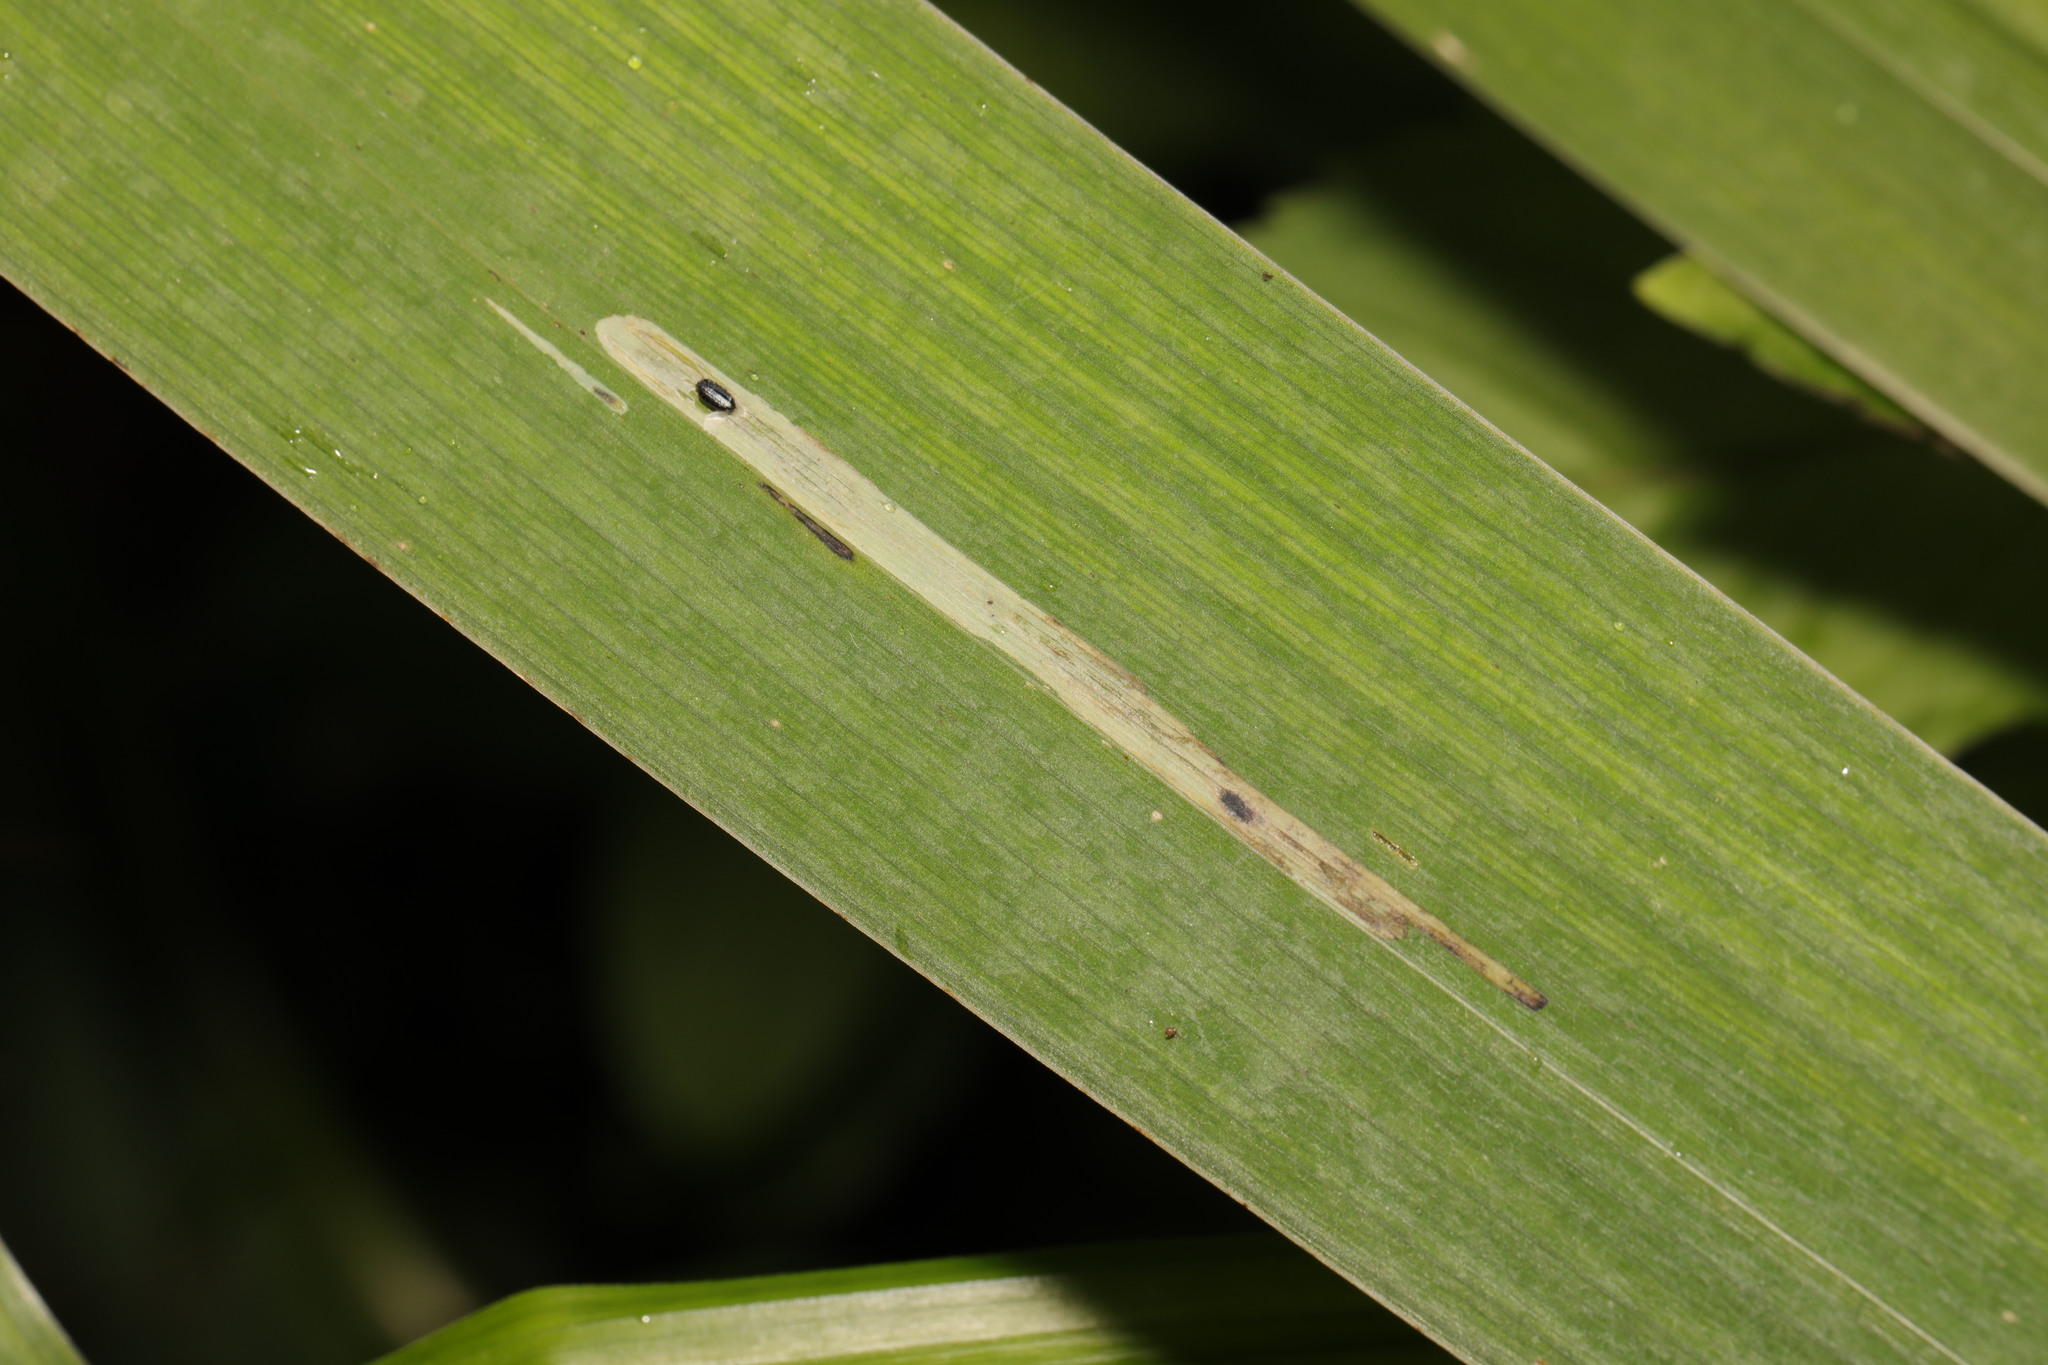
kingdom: Animalia
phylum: Arthropoda
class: Insecta
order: Diptera
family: Agromyzidae
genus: Cerodontha
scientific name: Cerodontha ircos
